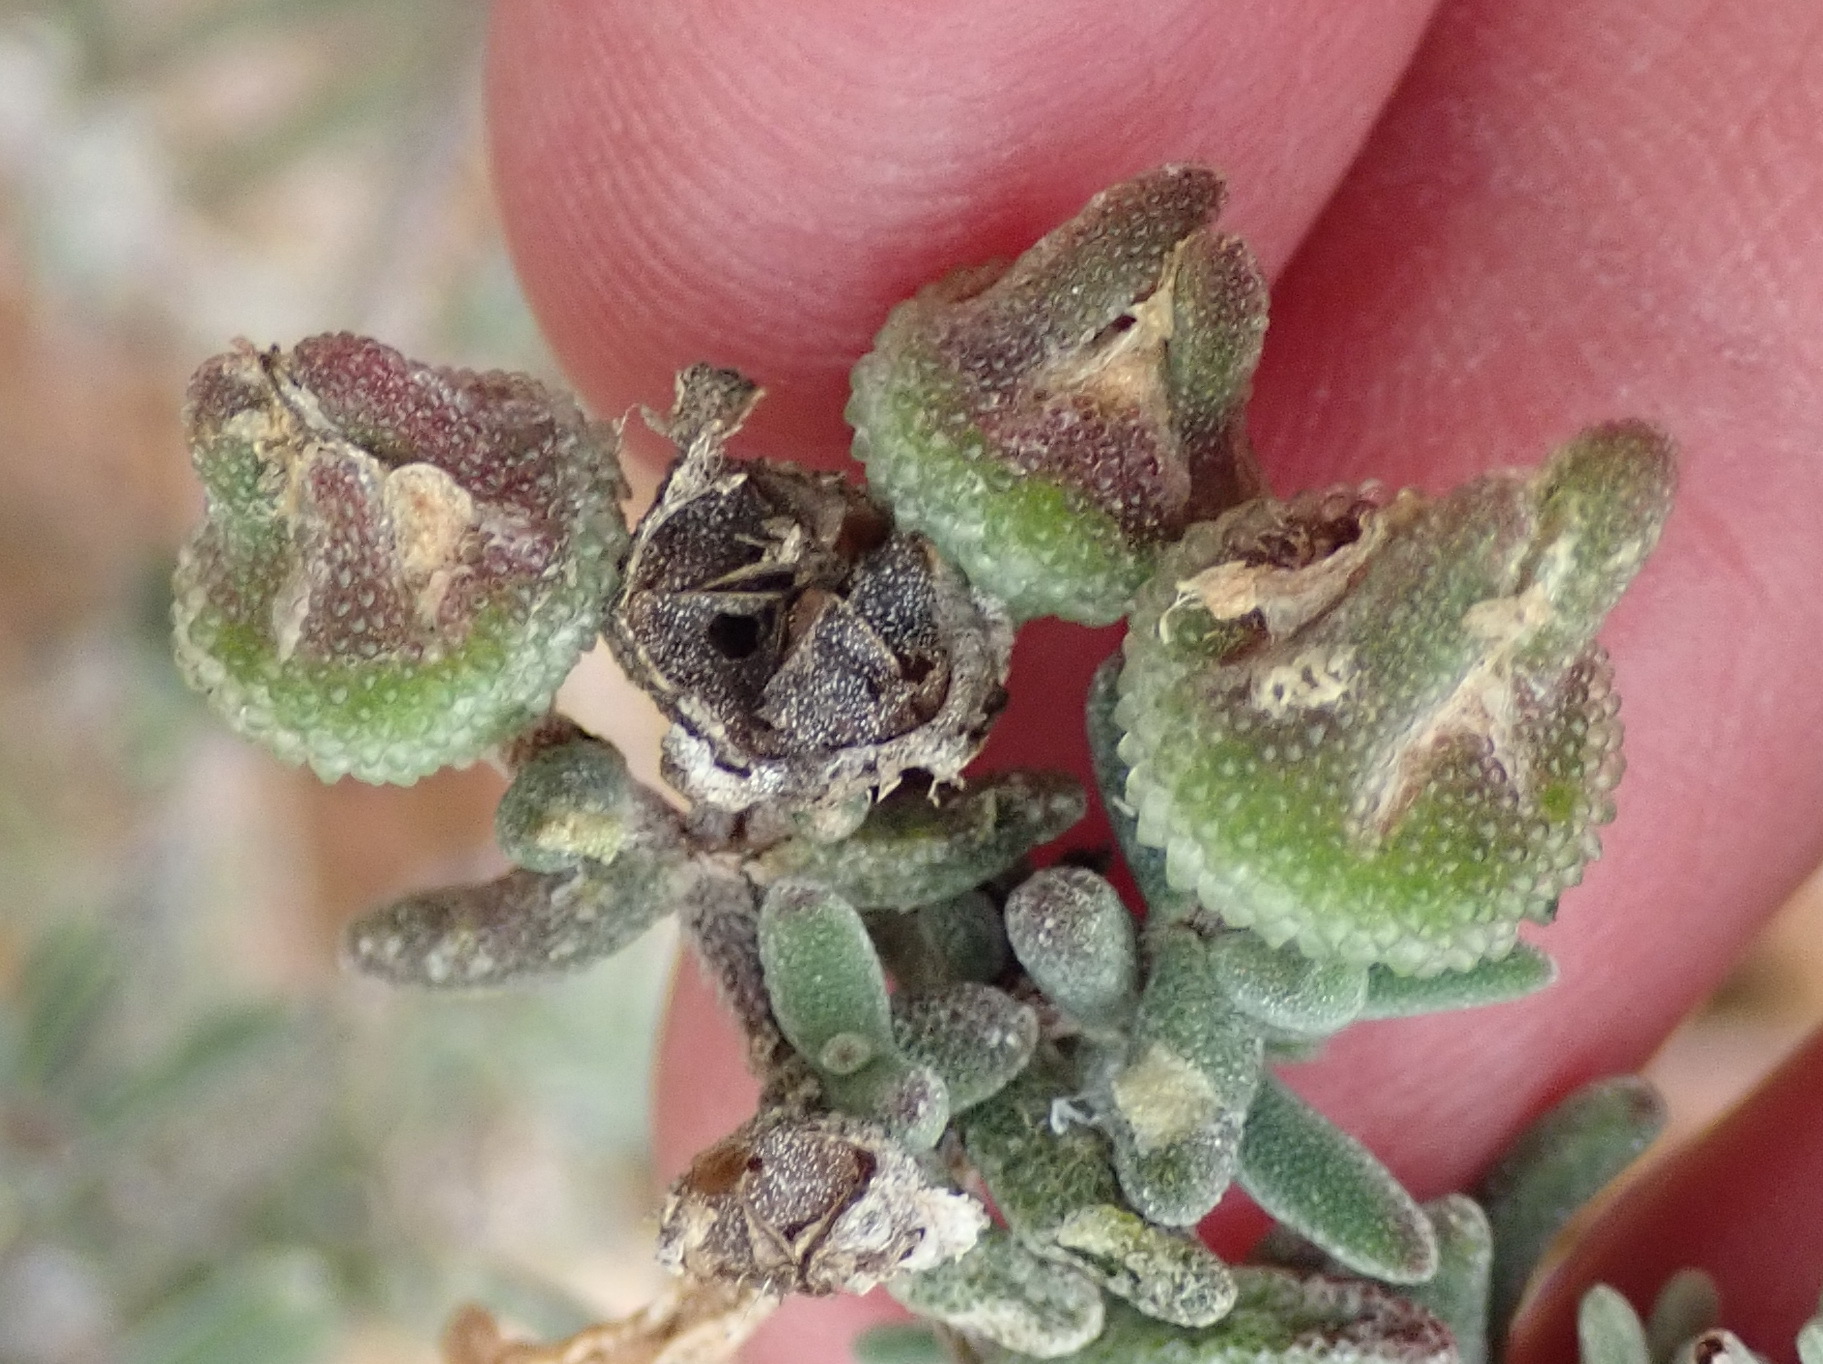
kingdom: Plantae
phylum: Tracheophyta
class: Magnoliopsida
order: Caryophyllales
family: Aizoaceae
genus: Drosanthemum
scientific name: Drosanthemum calycinum
